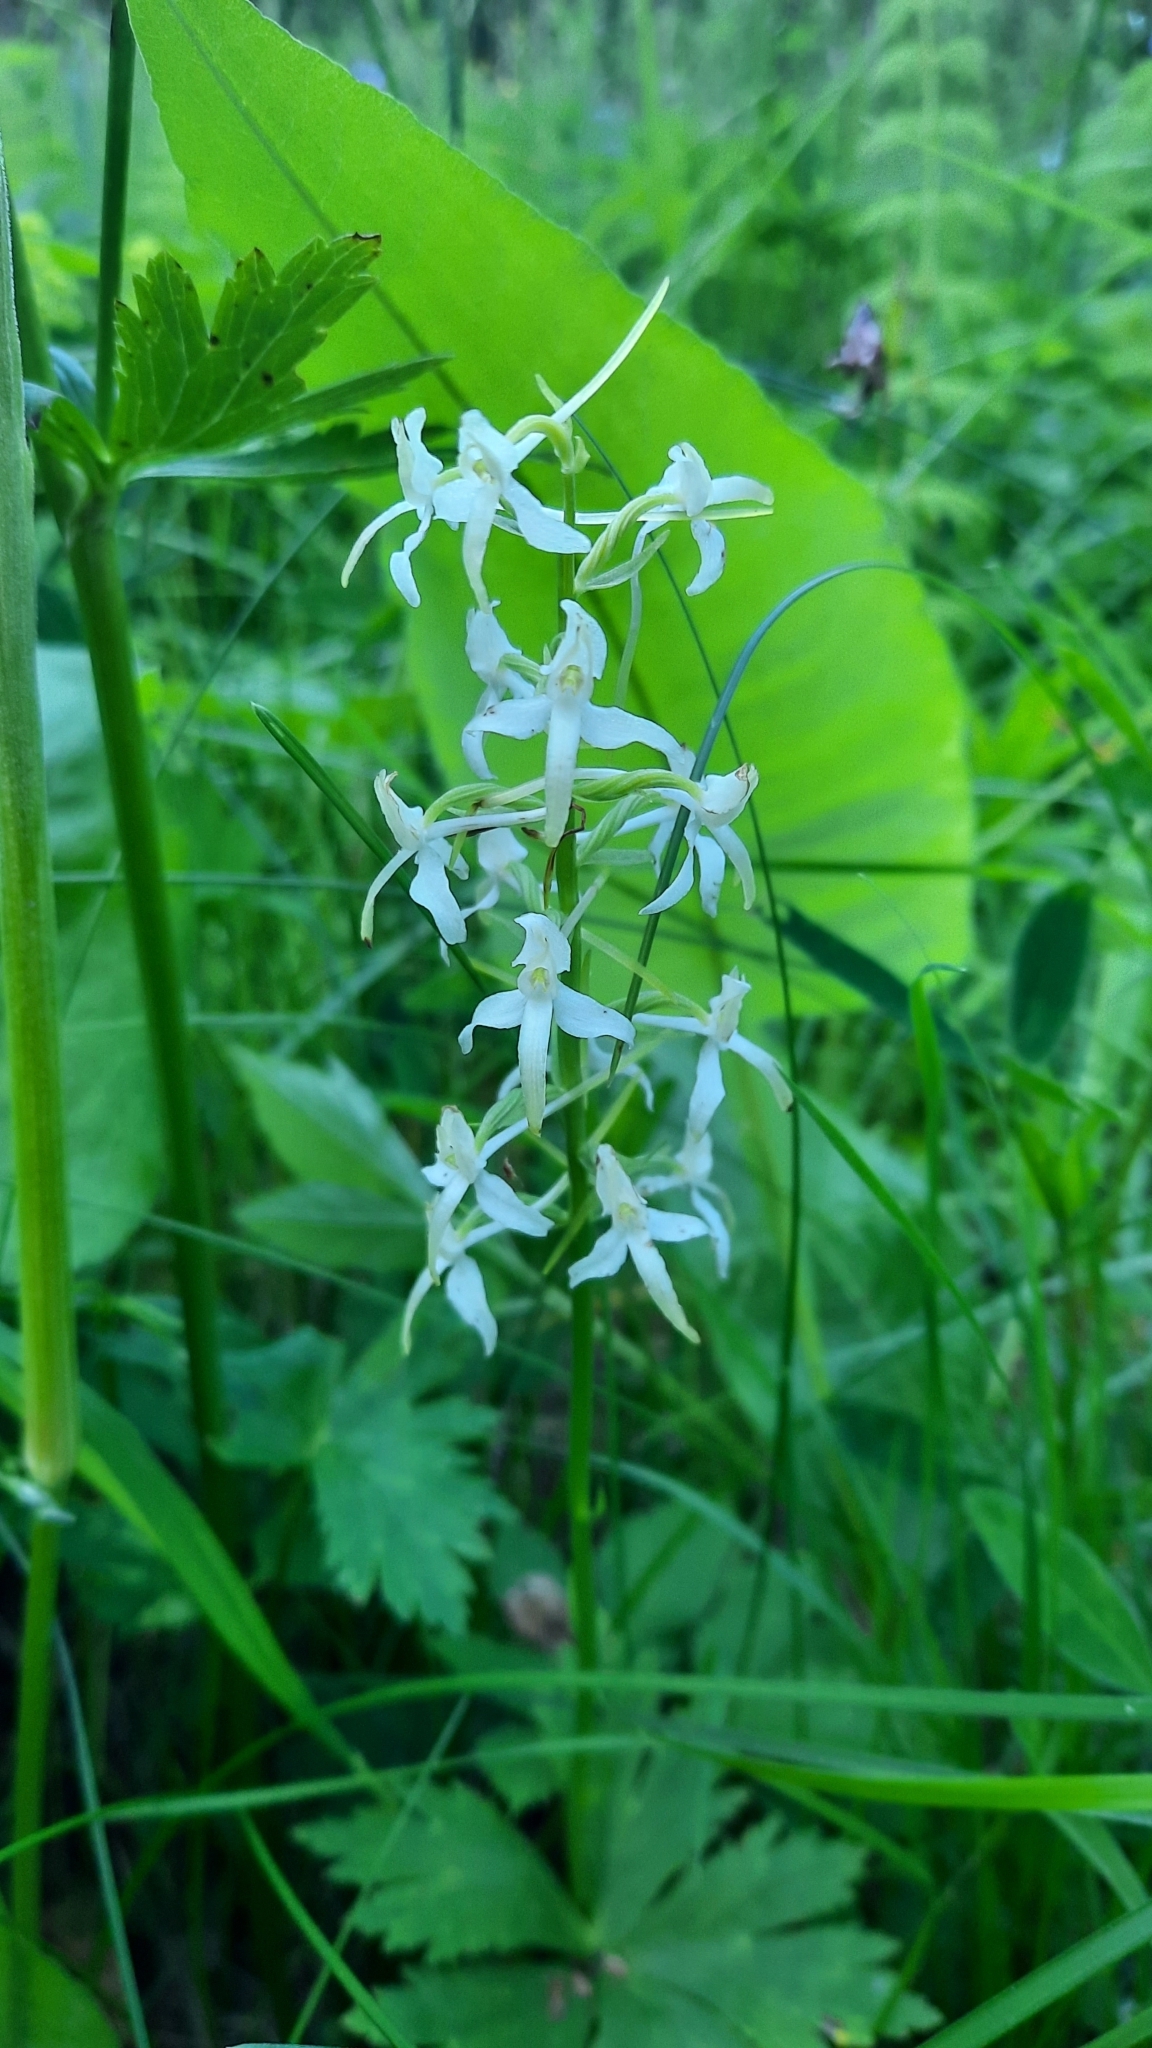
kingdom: Plantae
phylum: Tracheophyta
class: Liliopsida
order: Asparagales
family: Orchidaceae
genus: Platanthera
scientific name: Platanthera bifolia
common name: Lesser butterfly-orchid
